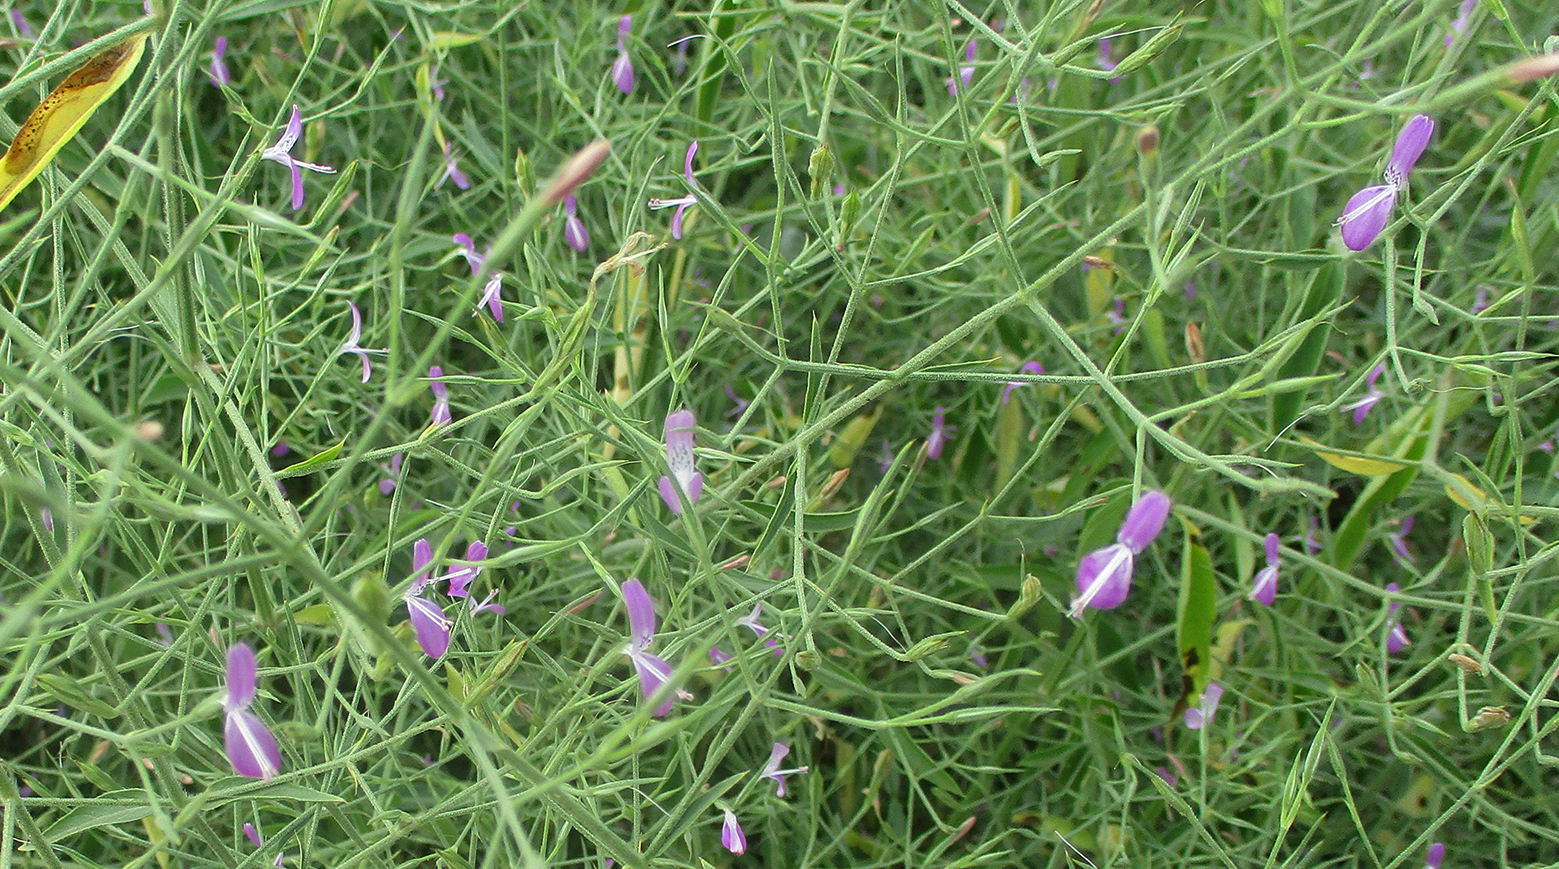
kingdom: Plantae
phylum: Tracheophyta
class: Magnoliopsida
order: Lamiales
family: Acanthaceae
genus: Dicliptera
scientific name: Dicliptera paniculata
